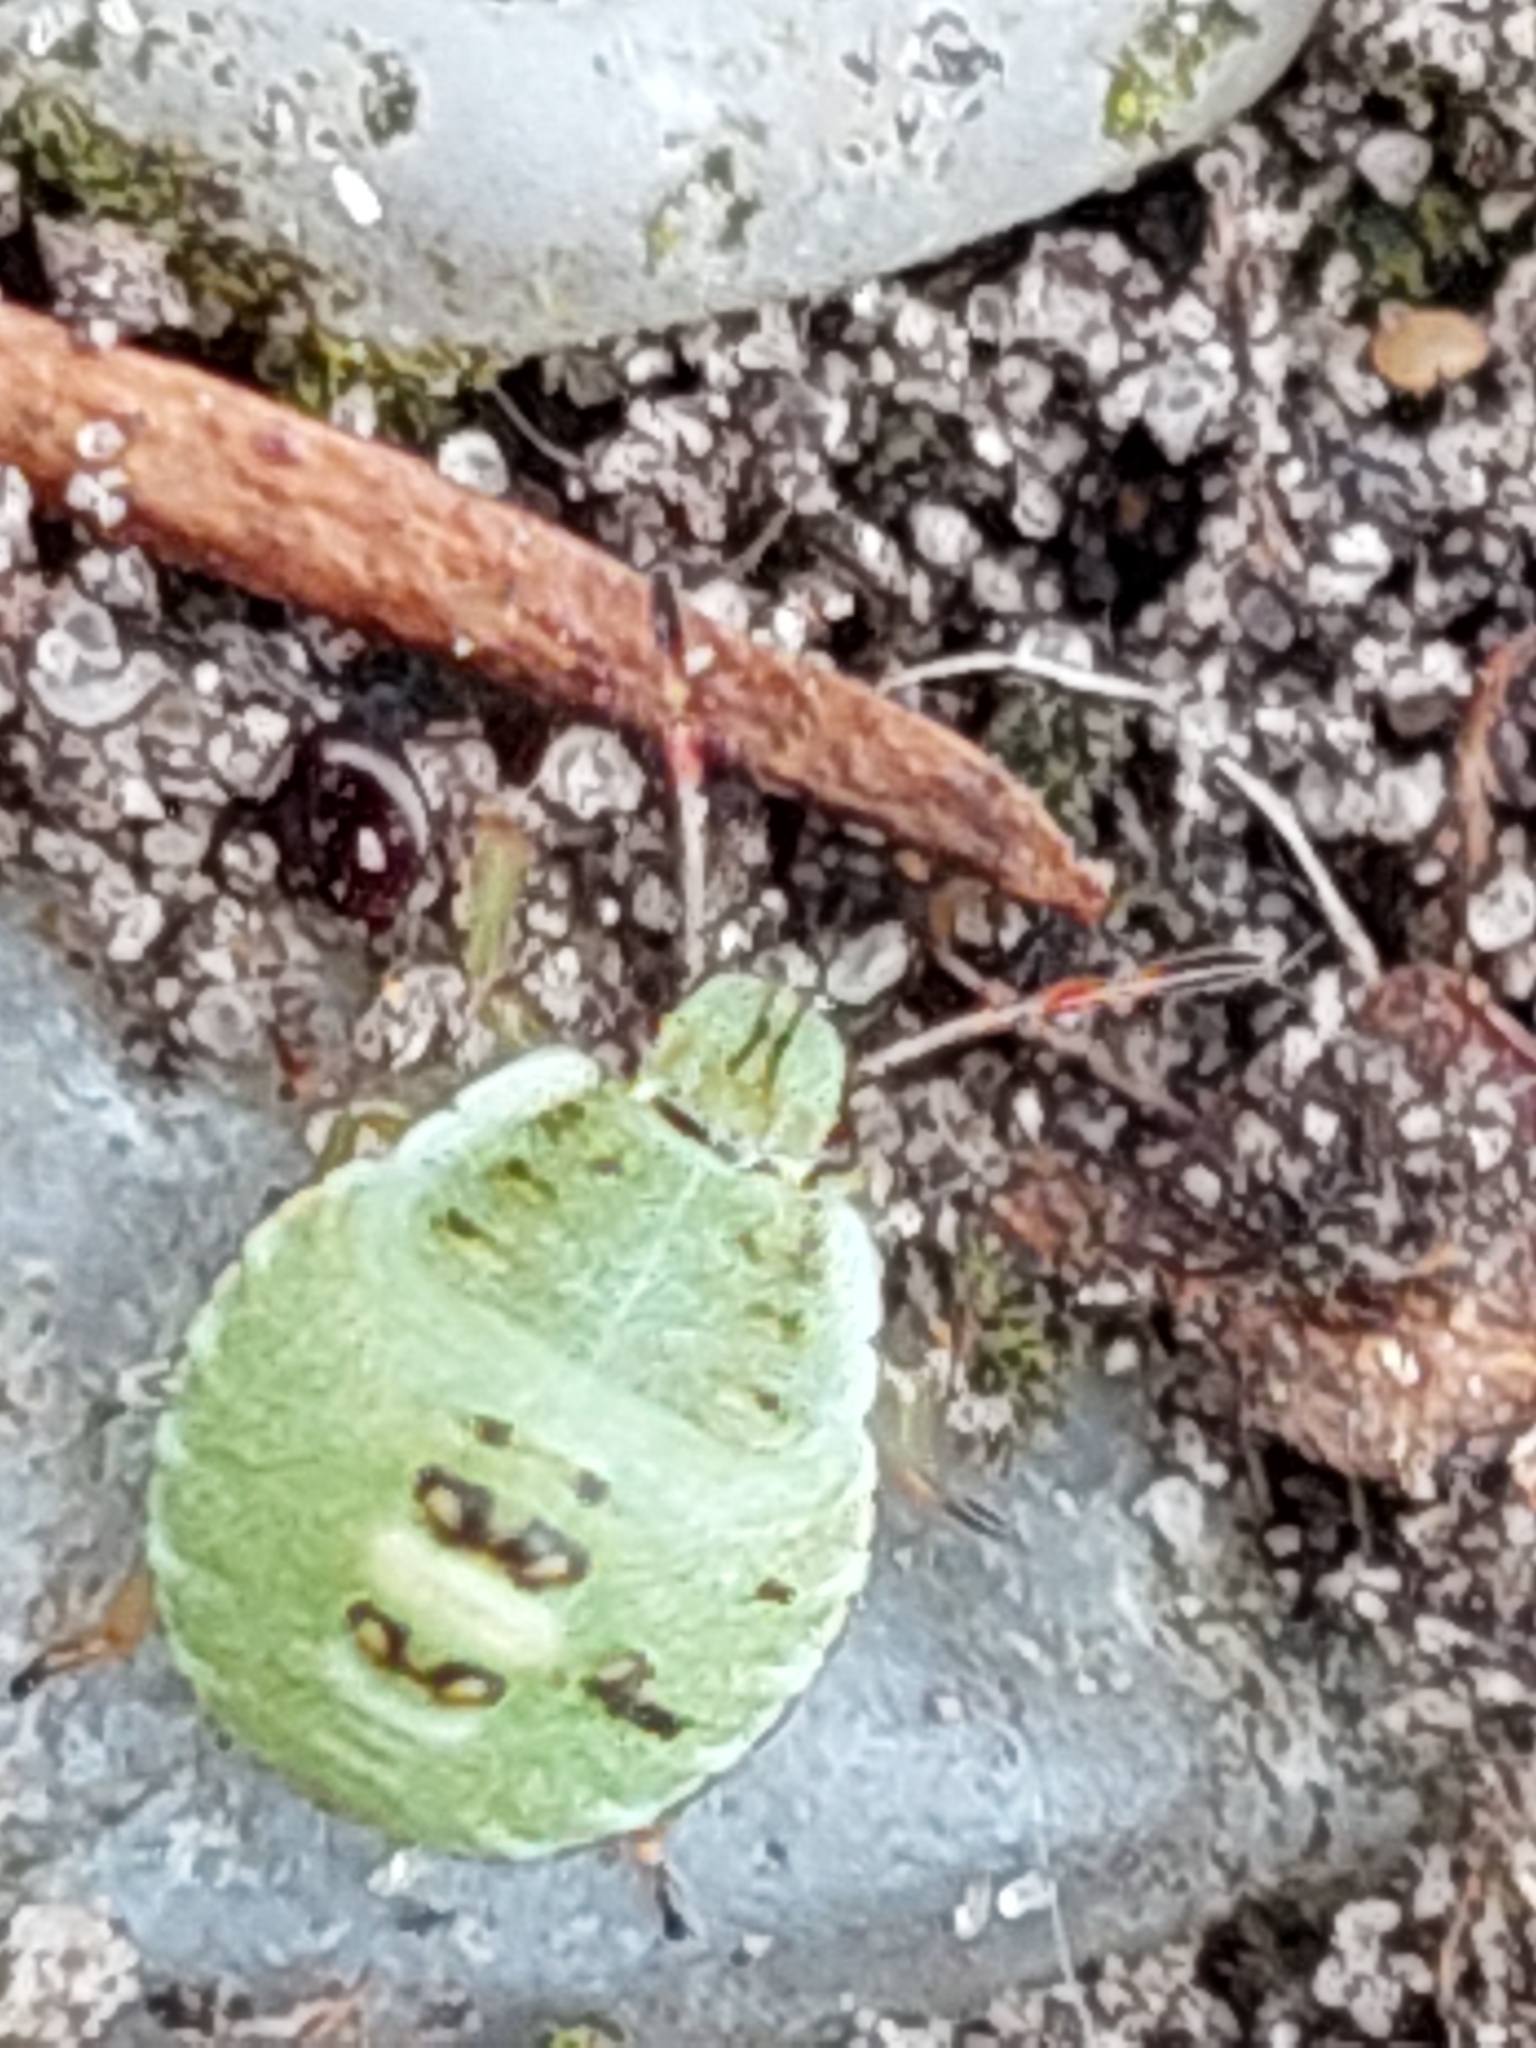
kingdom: Animalia
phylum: Arthropoda
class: Insecta
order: Hemiptera
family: Pentatomidae
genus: Palomena
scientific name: Palomena prasina
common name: Green shieldbug
